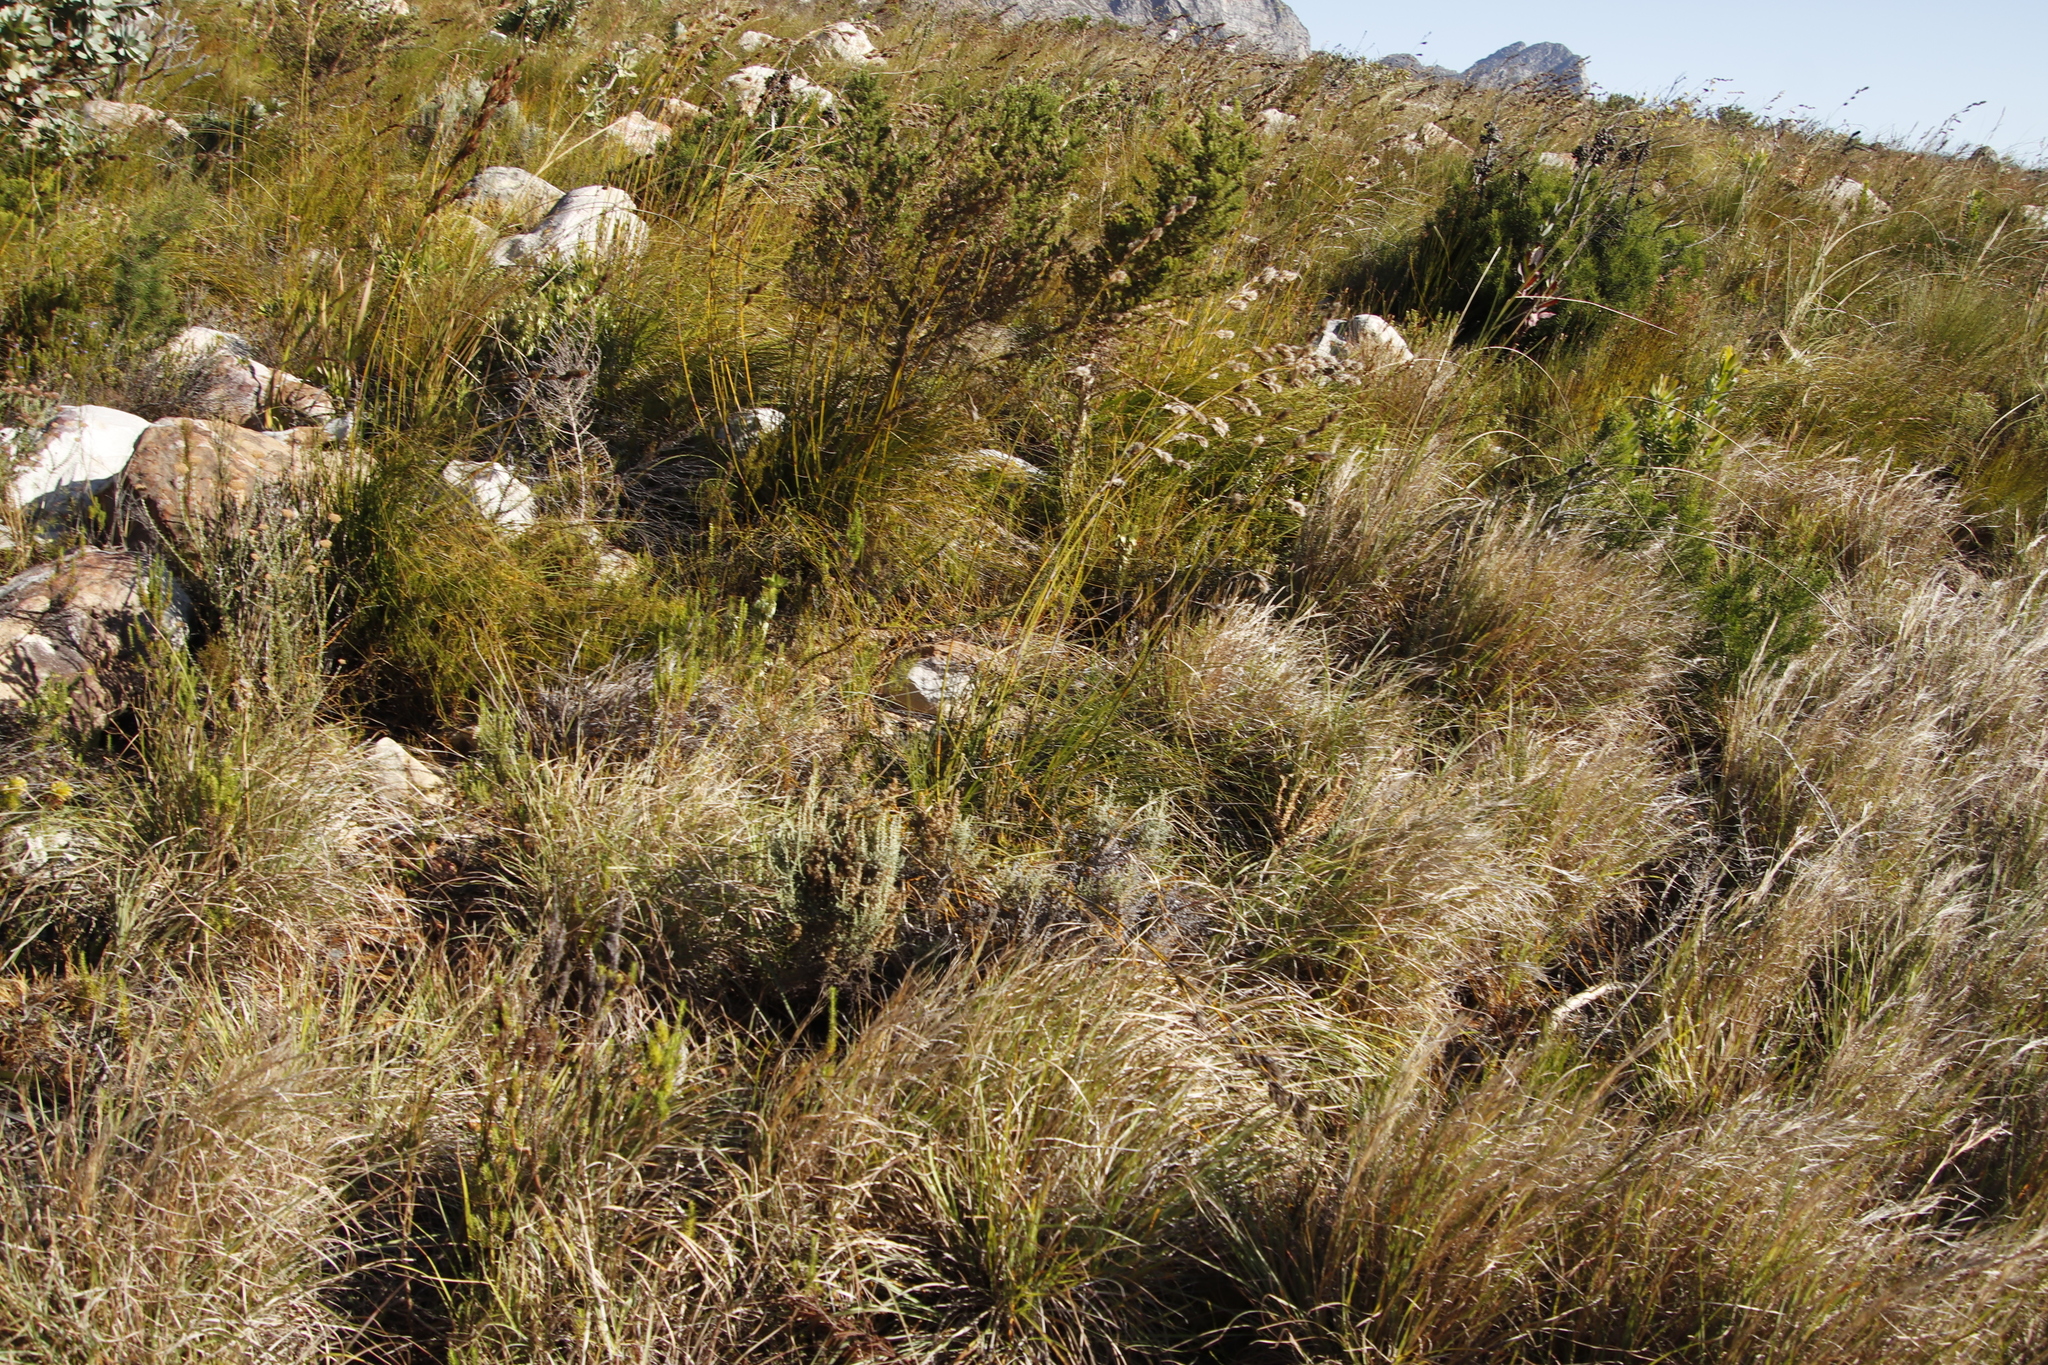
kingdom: Plantae
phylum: Tracheophyta
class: Liliopsida
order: Poales
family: Cyperaceae
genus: Tetraria
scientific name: Tetraria bromoides
